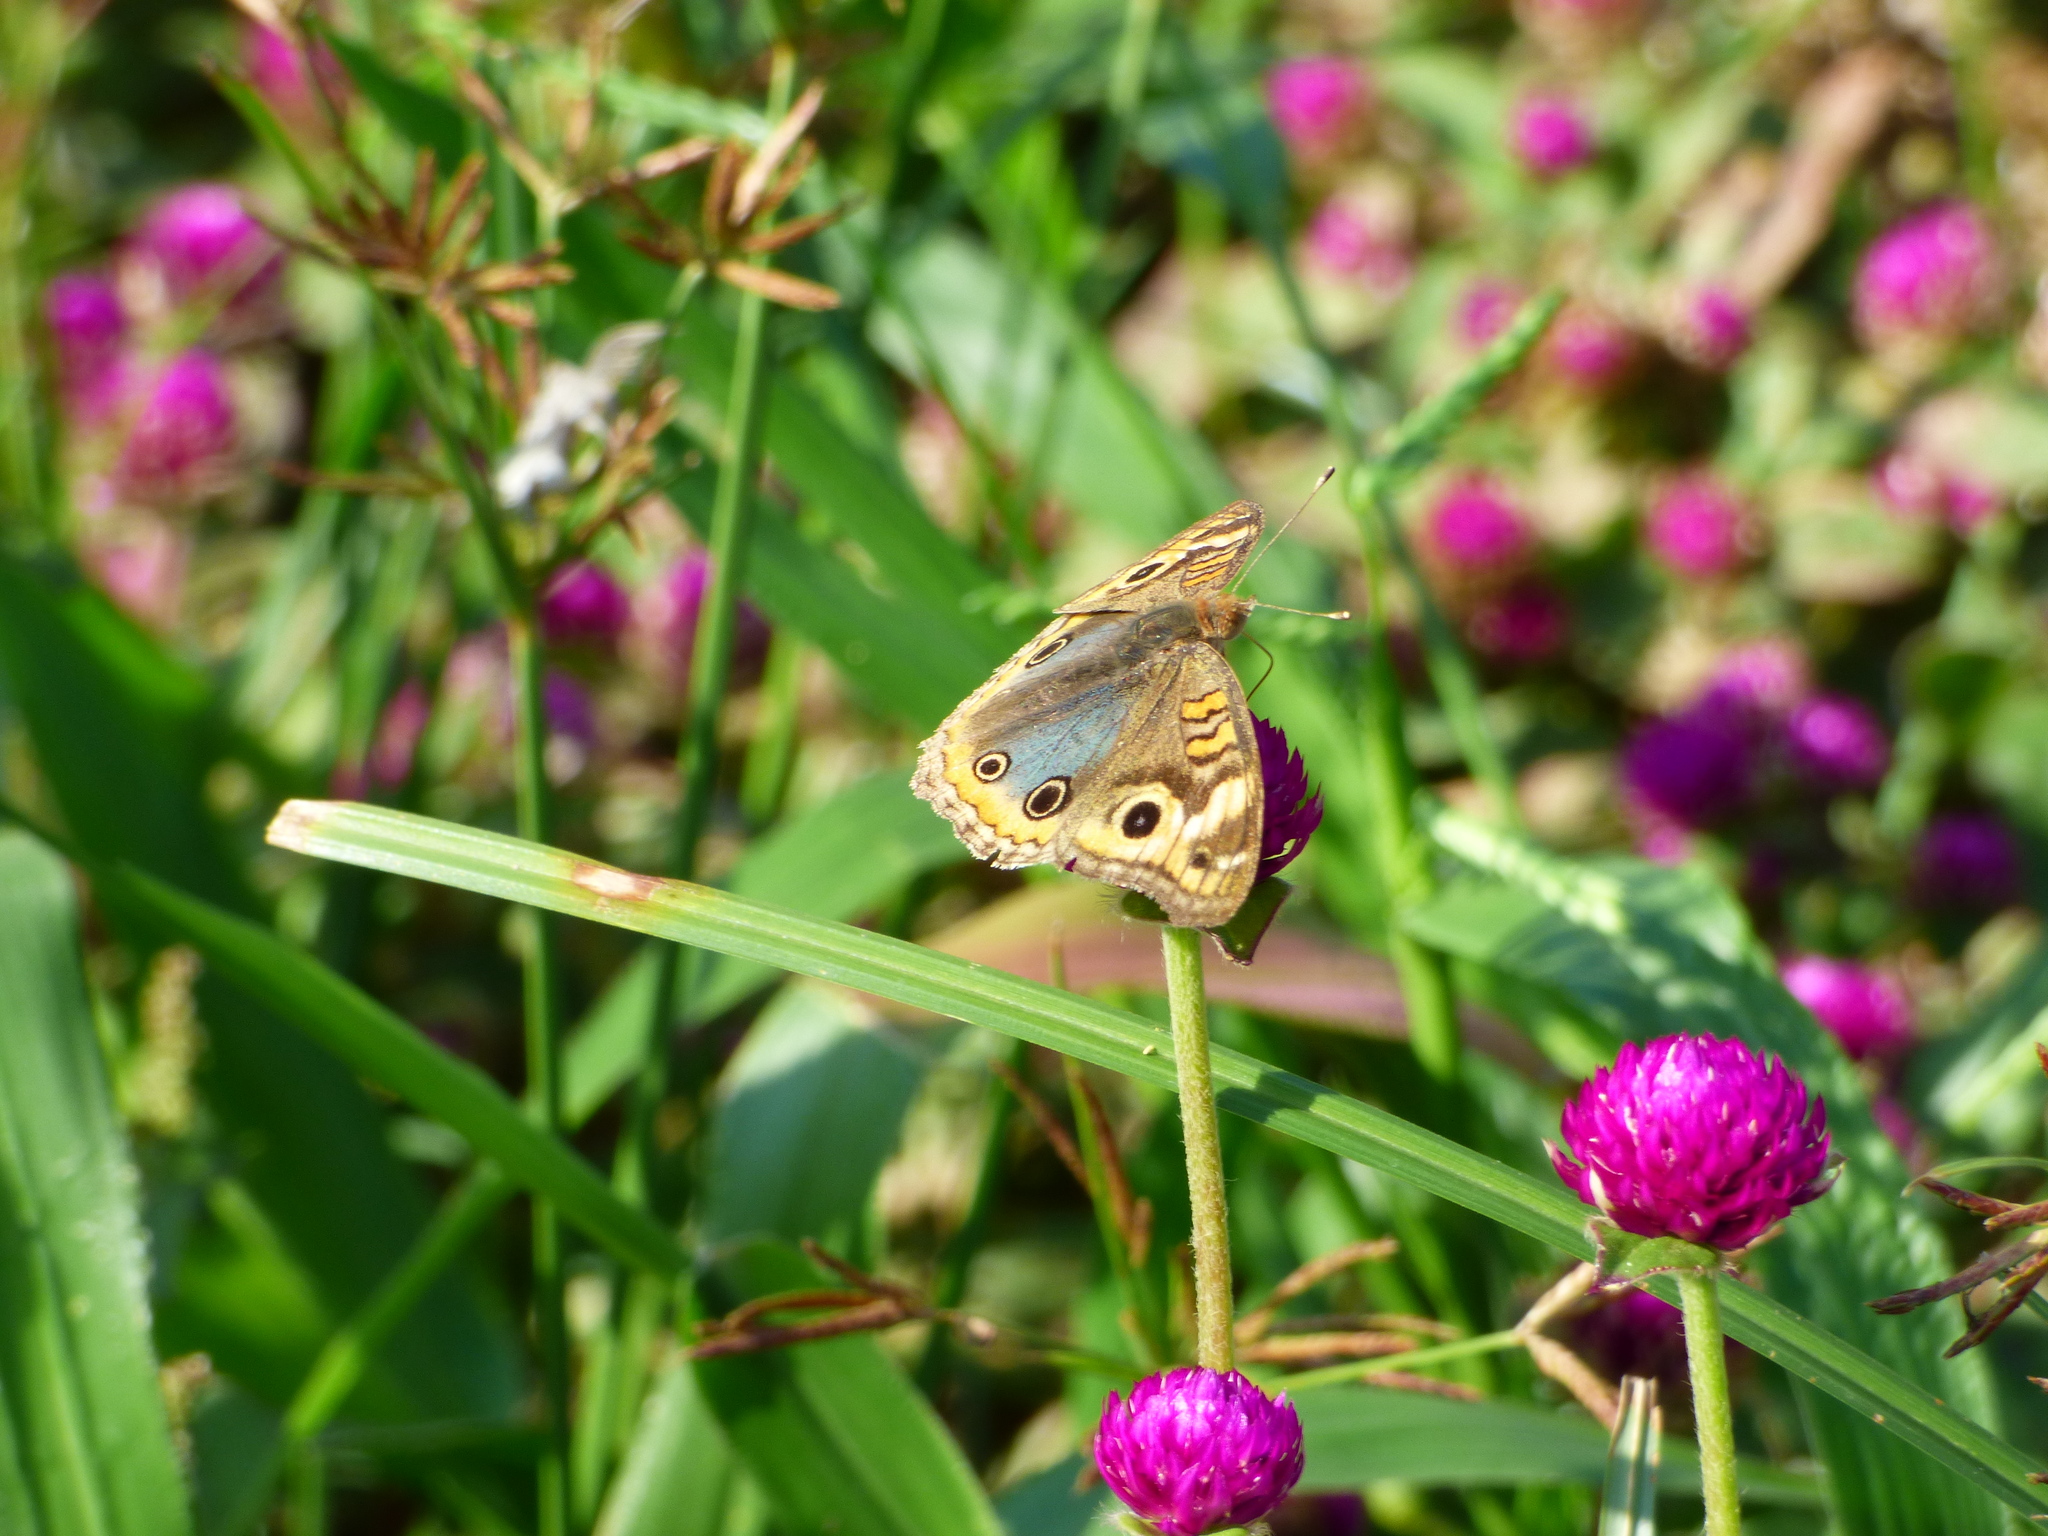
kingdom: Animalia
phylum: Arthropoda
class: Insecta
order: Lepidoptera
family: Nymphalidae
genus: Junonia
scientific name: Junonia lavinia
